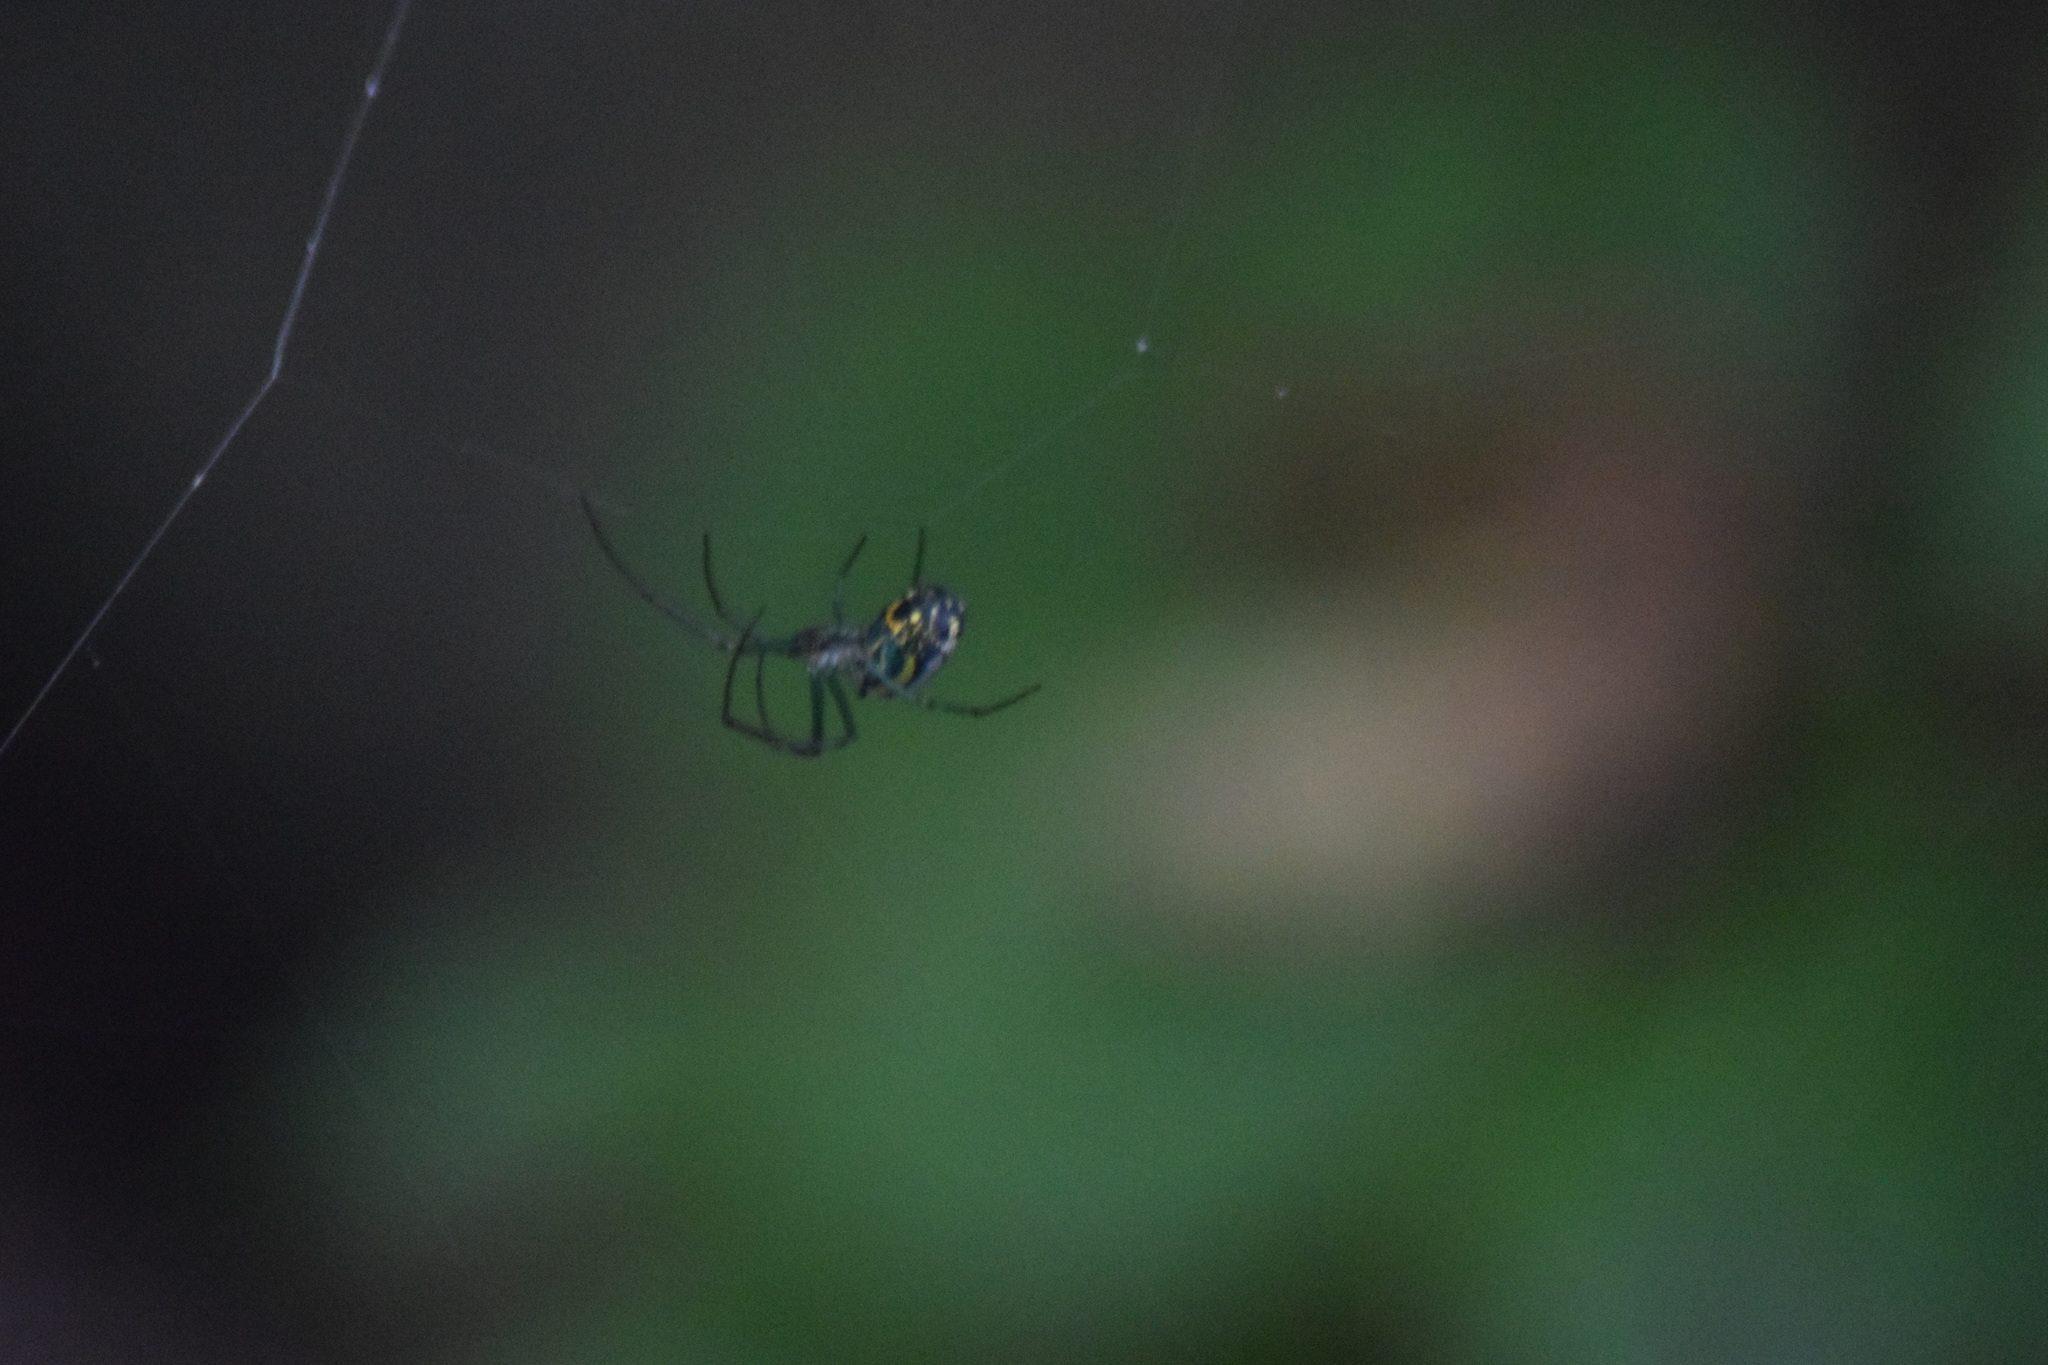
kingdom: Animalia
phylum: Arthropoda
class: Arachnida
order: Araneae
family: Tetragnathidae
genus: Leucauge
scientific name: Leucauge venusta
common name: Longjawed orb weavers
